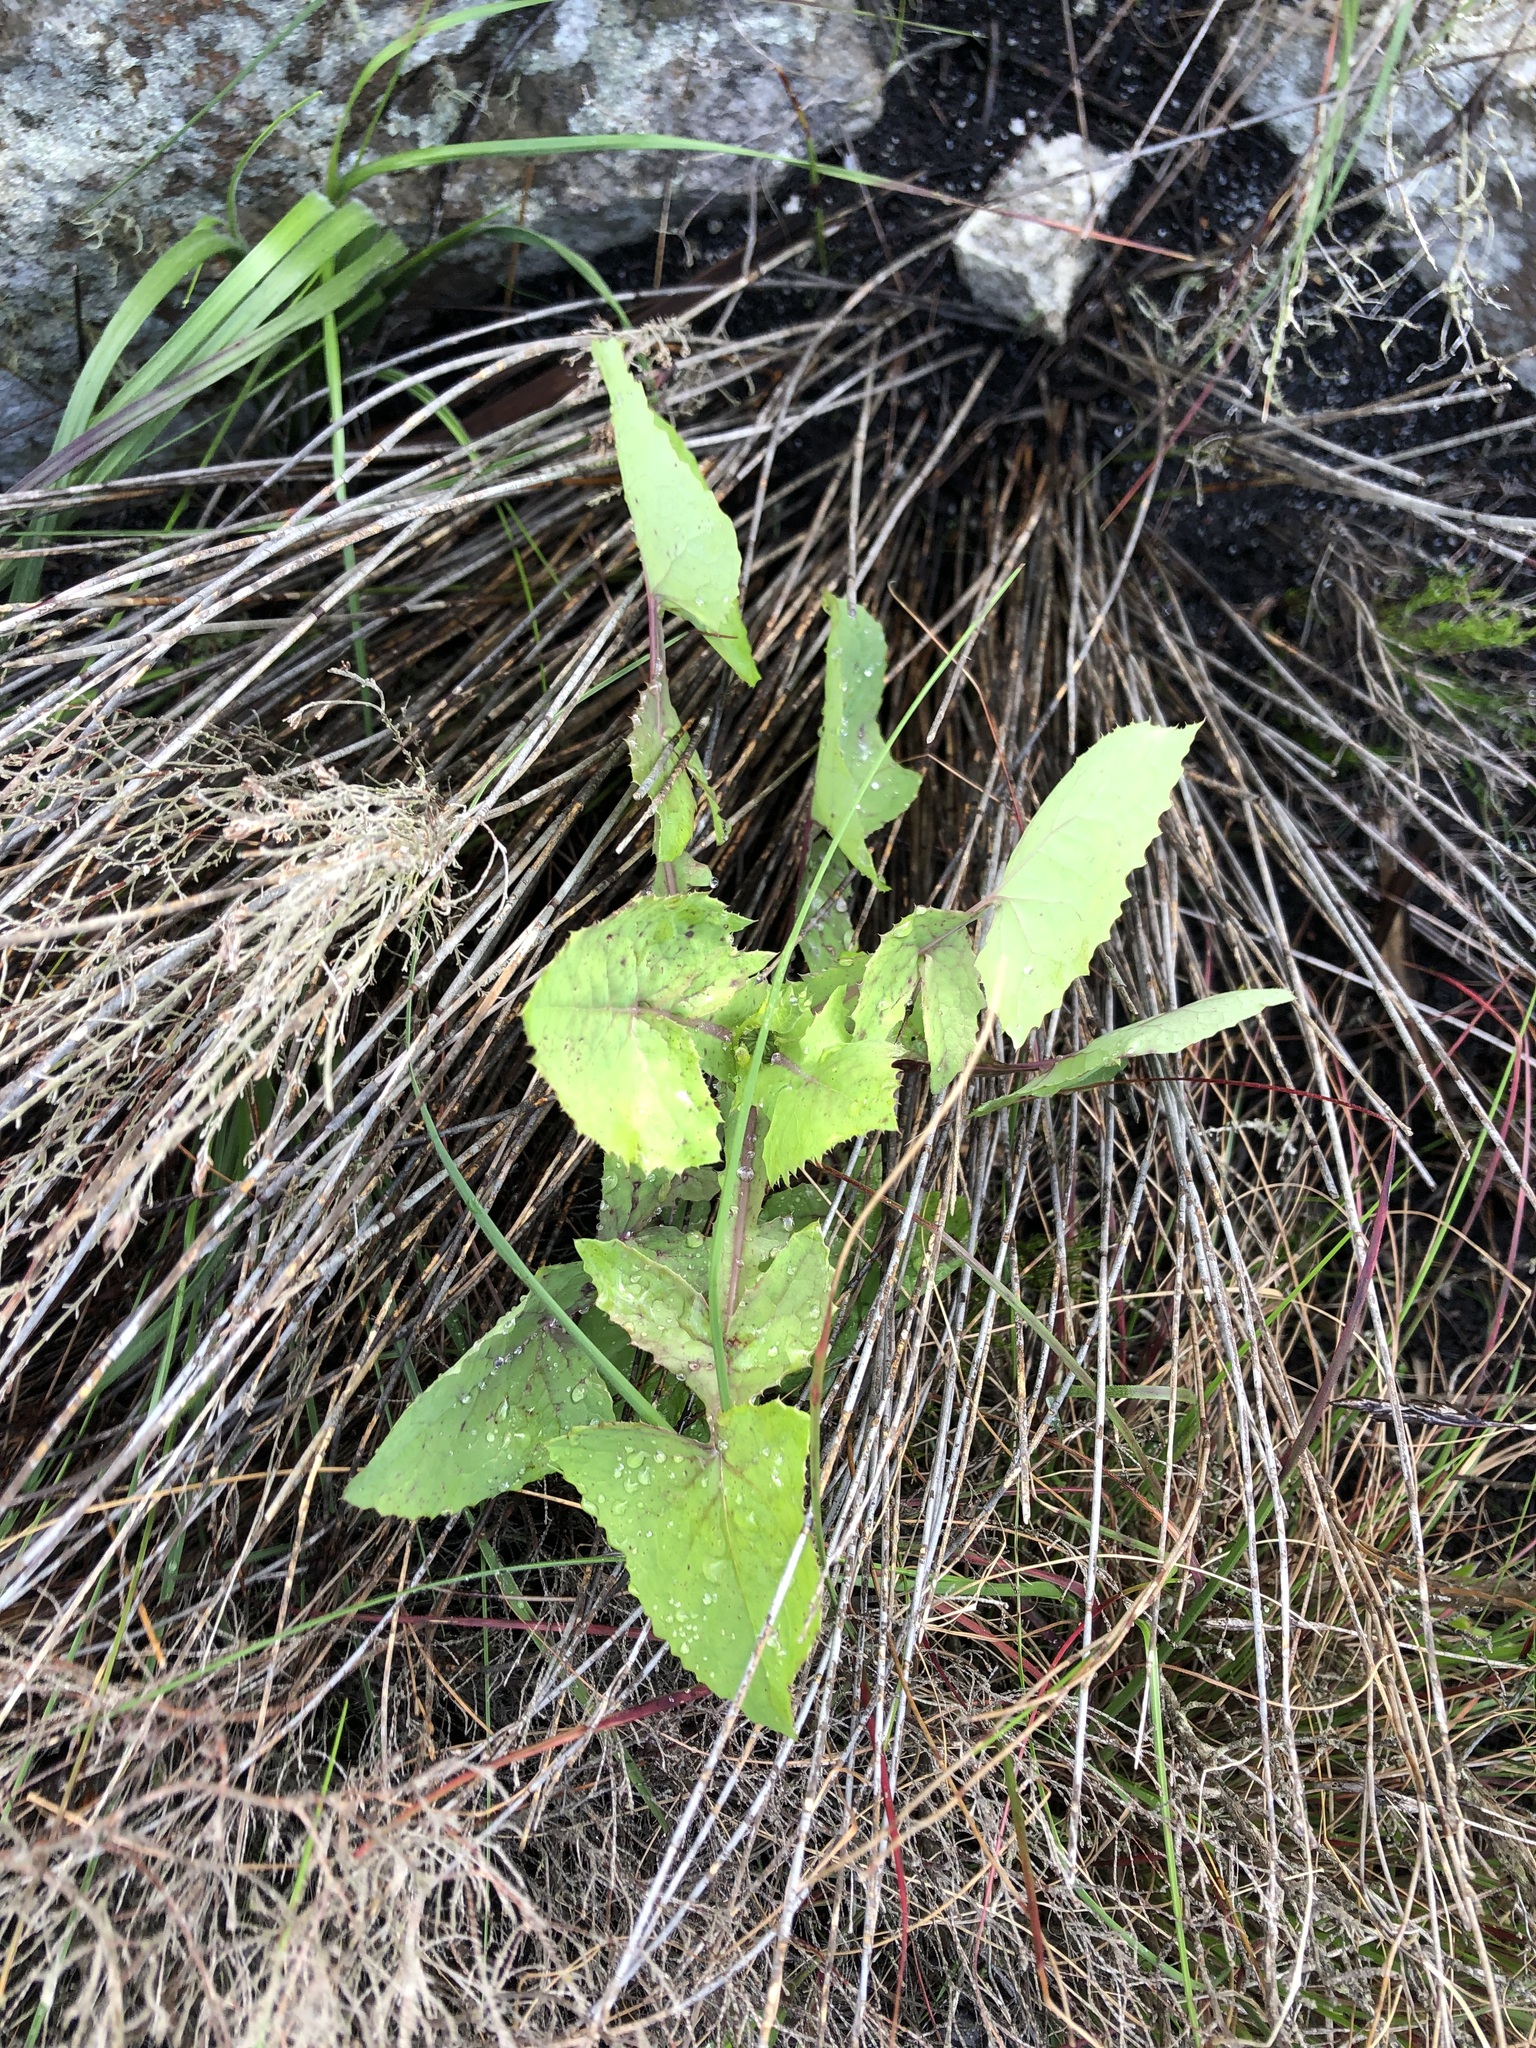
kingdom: Plantae
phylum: Tracheophyta
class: Magnoliopsida
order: Asterales
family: Asteraceae
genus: Sonchus
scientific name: Sonchus oleraceus
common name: Common sowthistle
